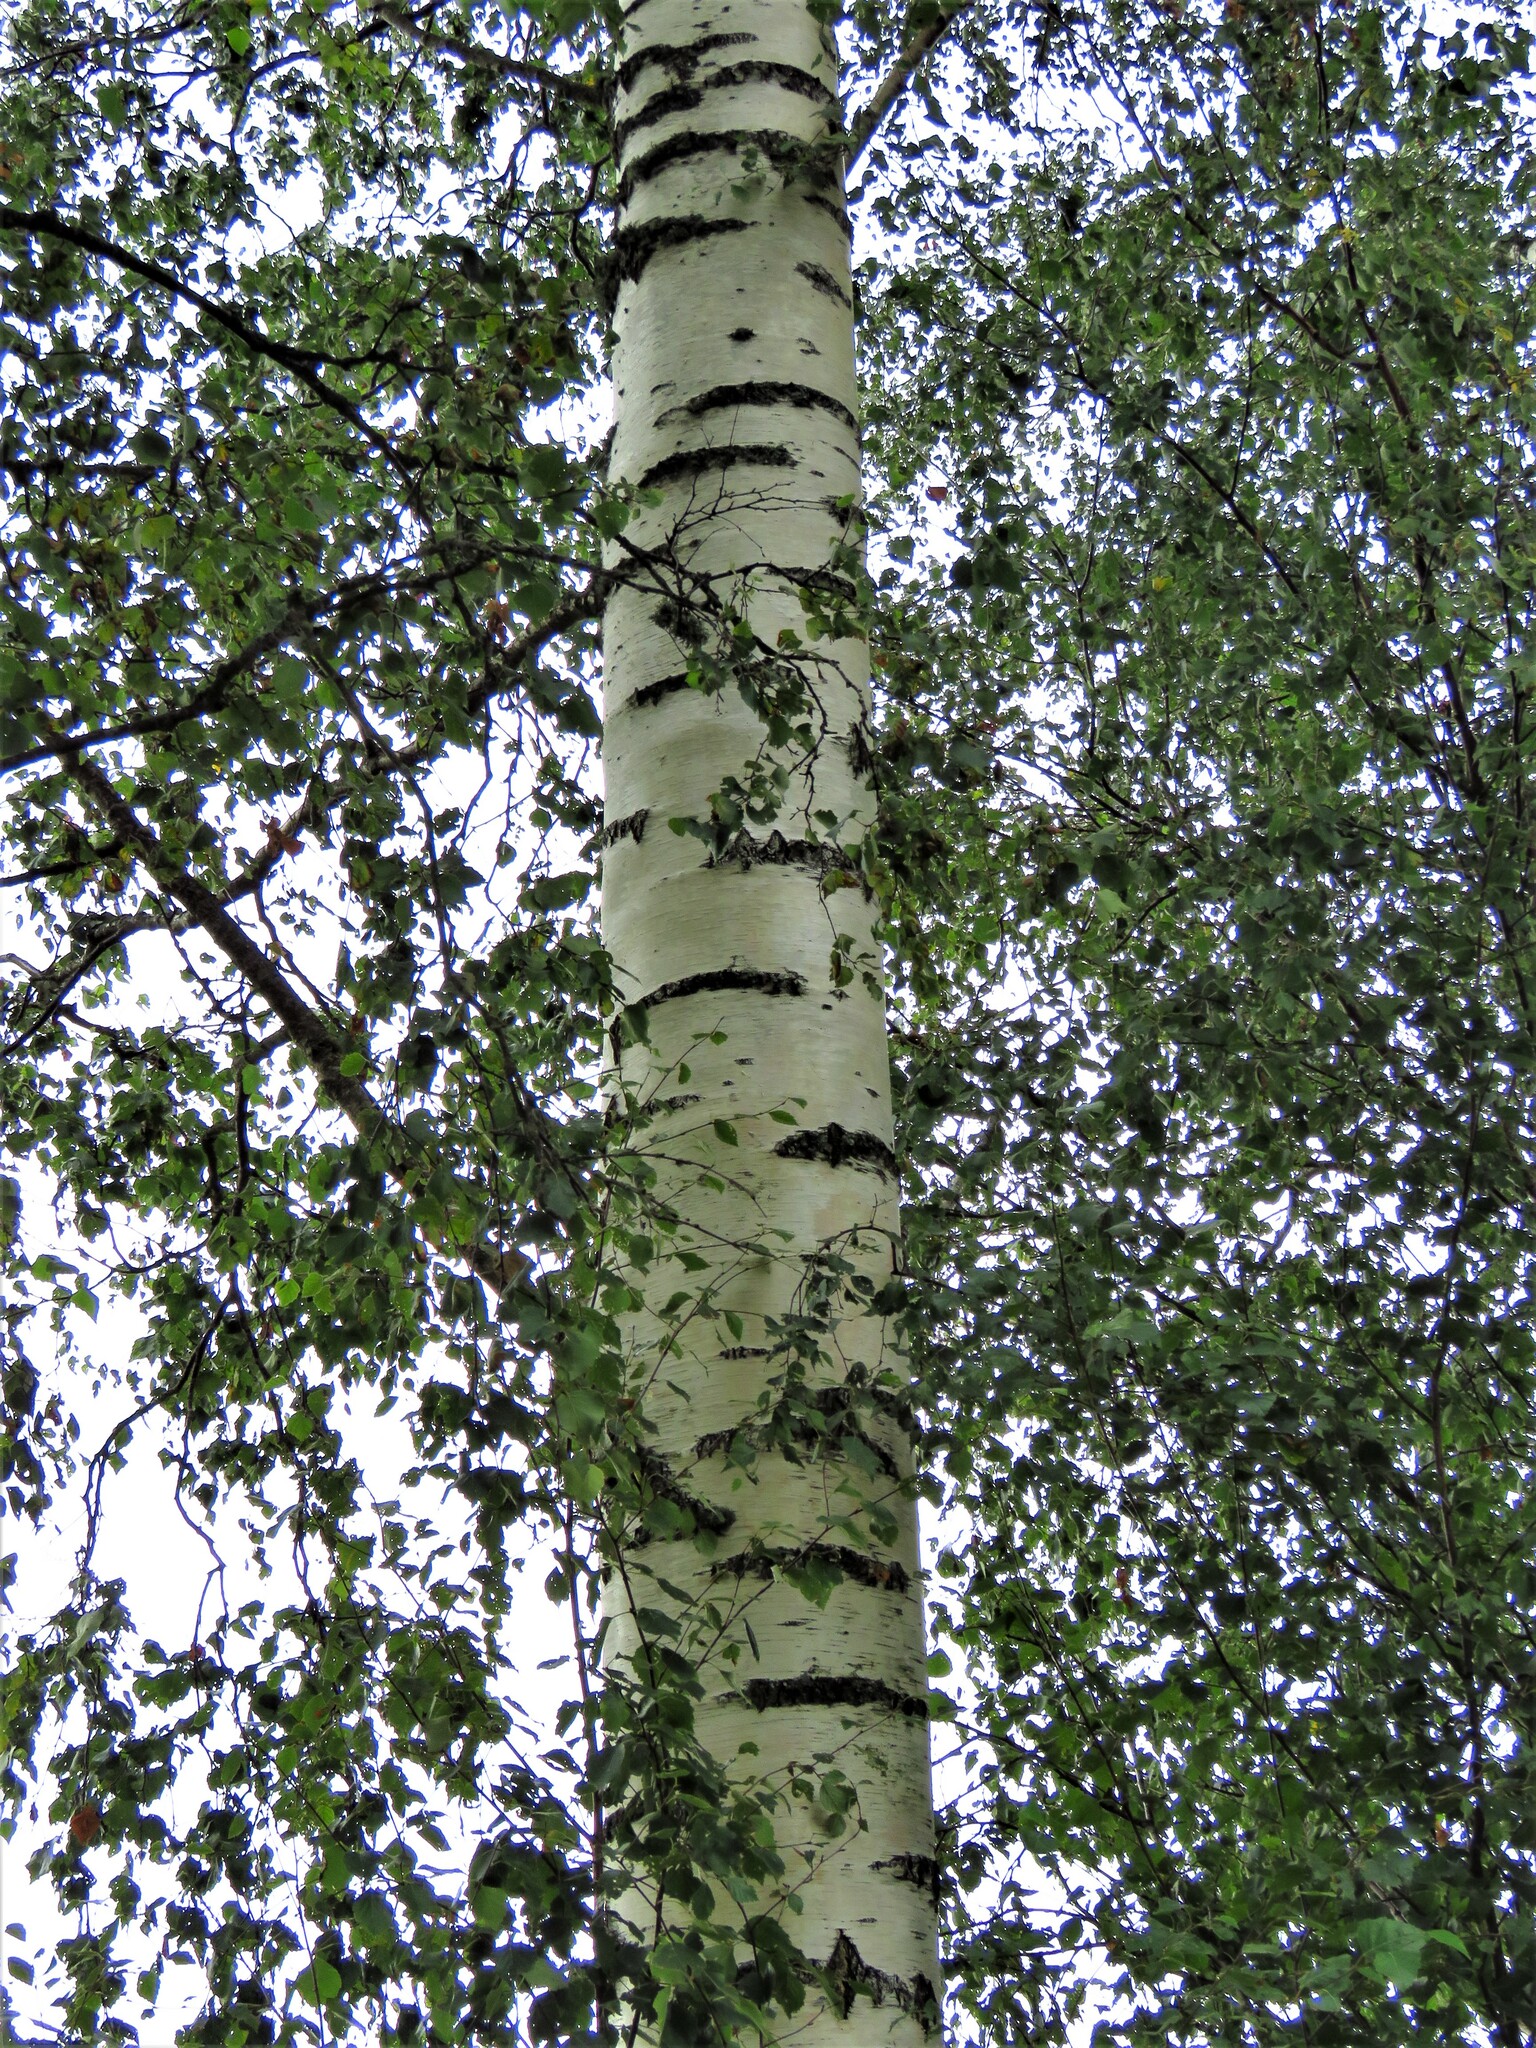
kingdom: Plantae
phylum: Tracheophyta
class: Magnoliopsida
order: Fagales
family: Betulaceae
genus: Betula
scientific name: Betula pendula
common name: Silver birch
